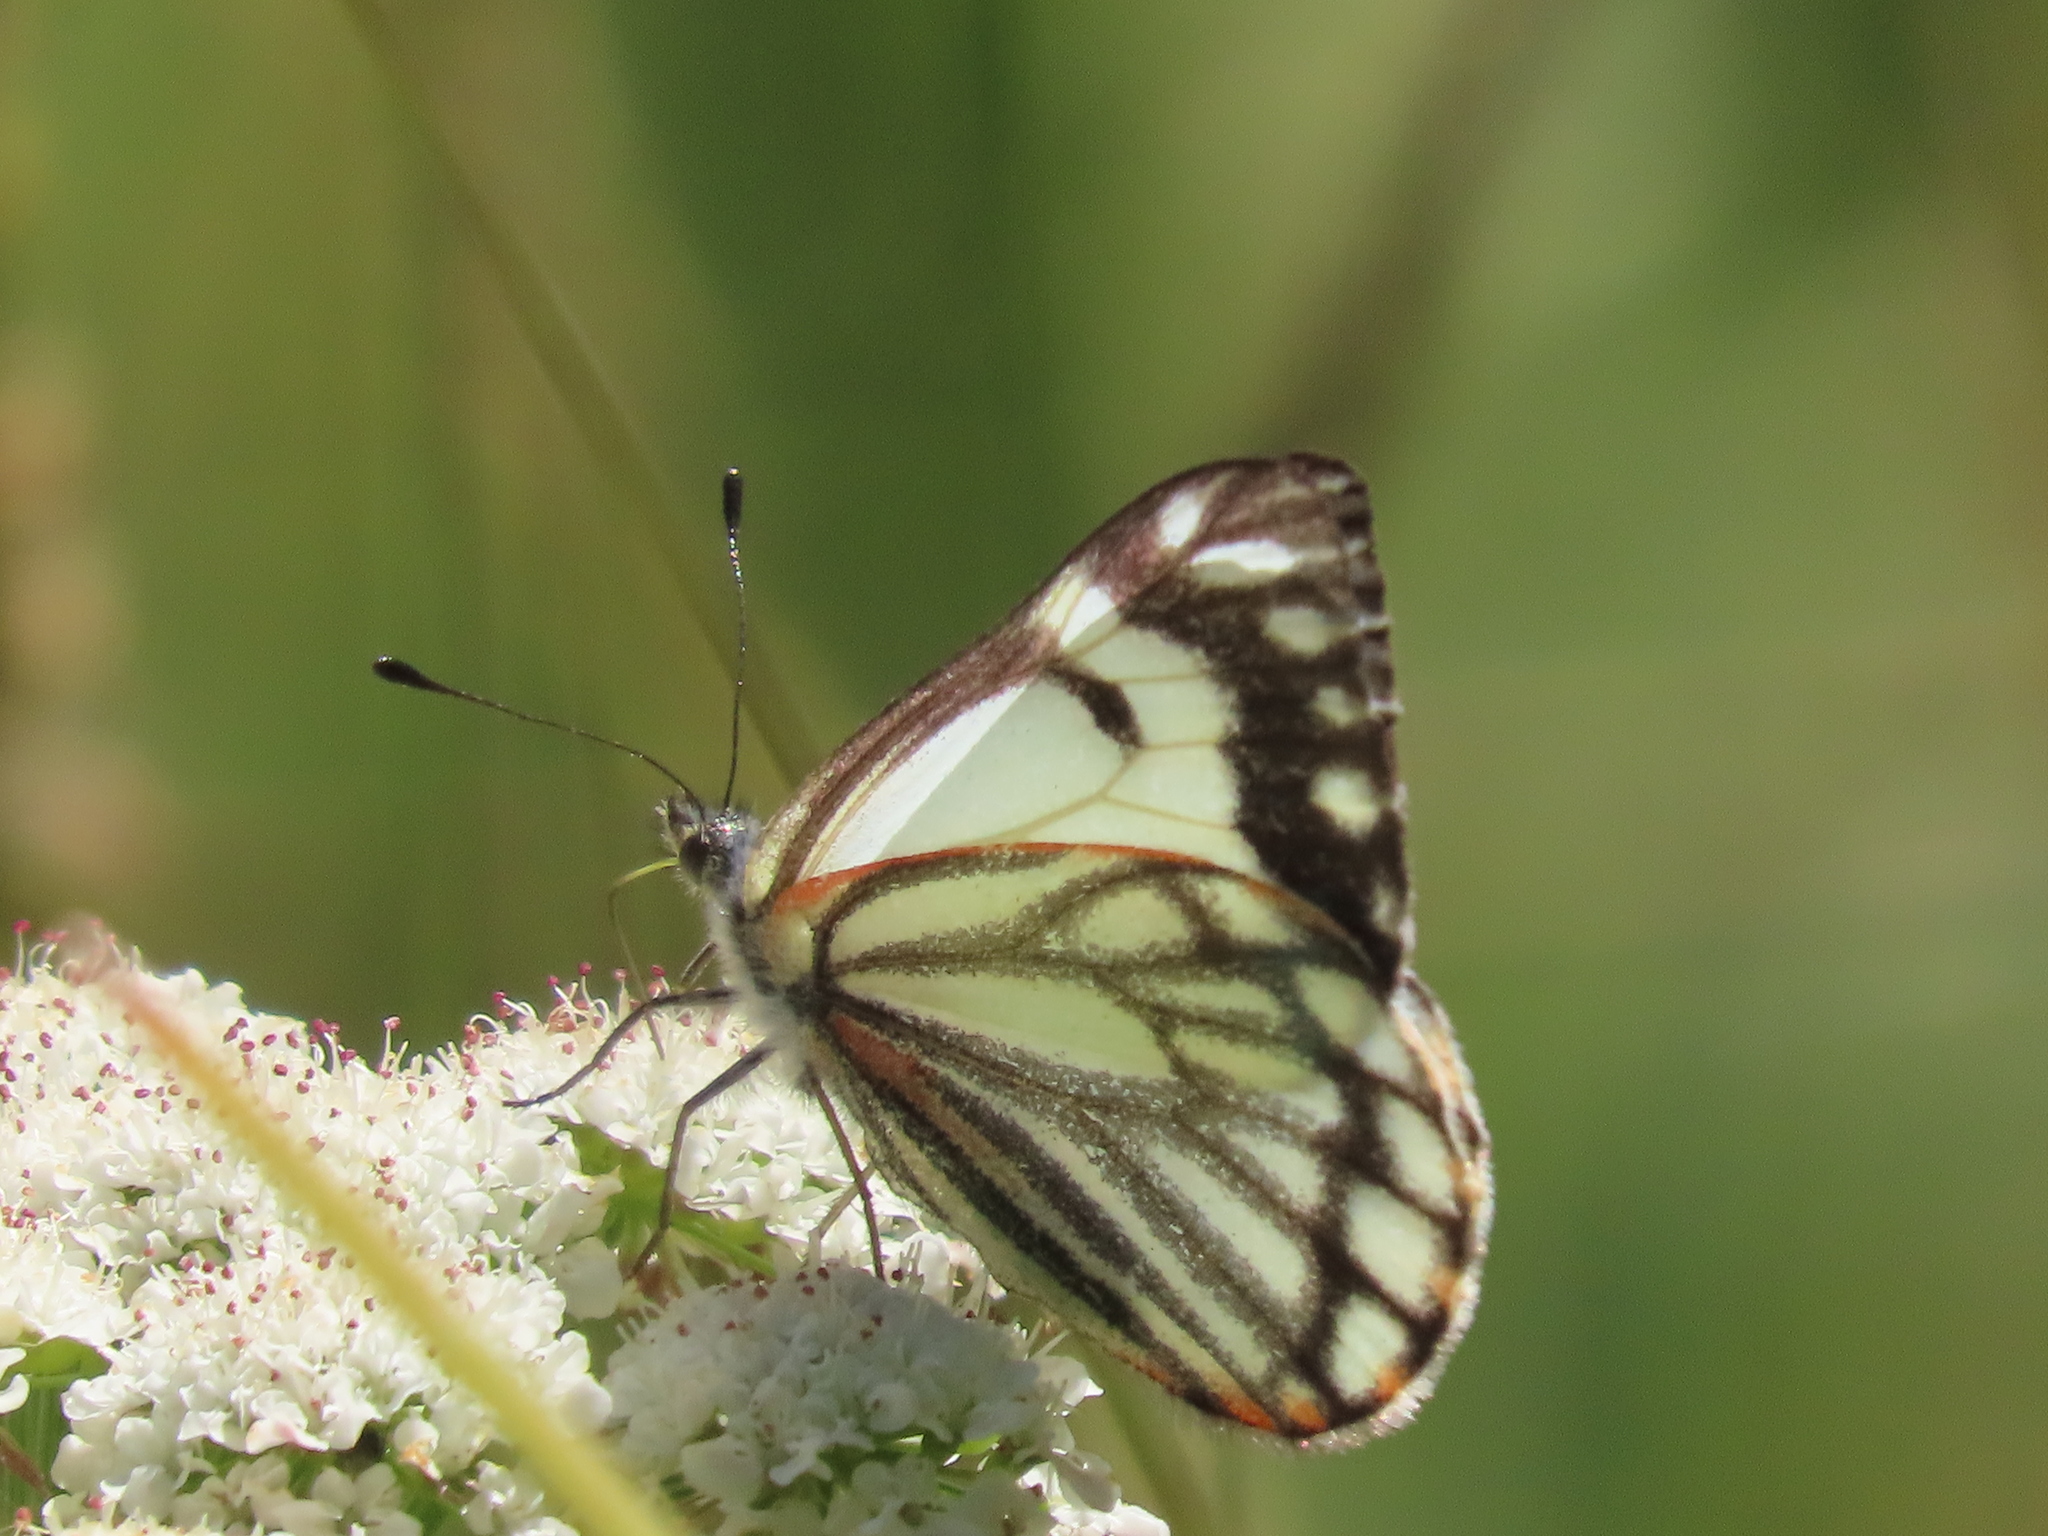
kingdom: Animalia
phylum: Arthropoda
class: Insecta
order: Lepidoptera
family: Pieridae
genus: Neophasia
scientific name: Neophasia menapia
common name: Pine white
